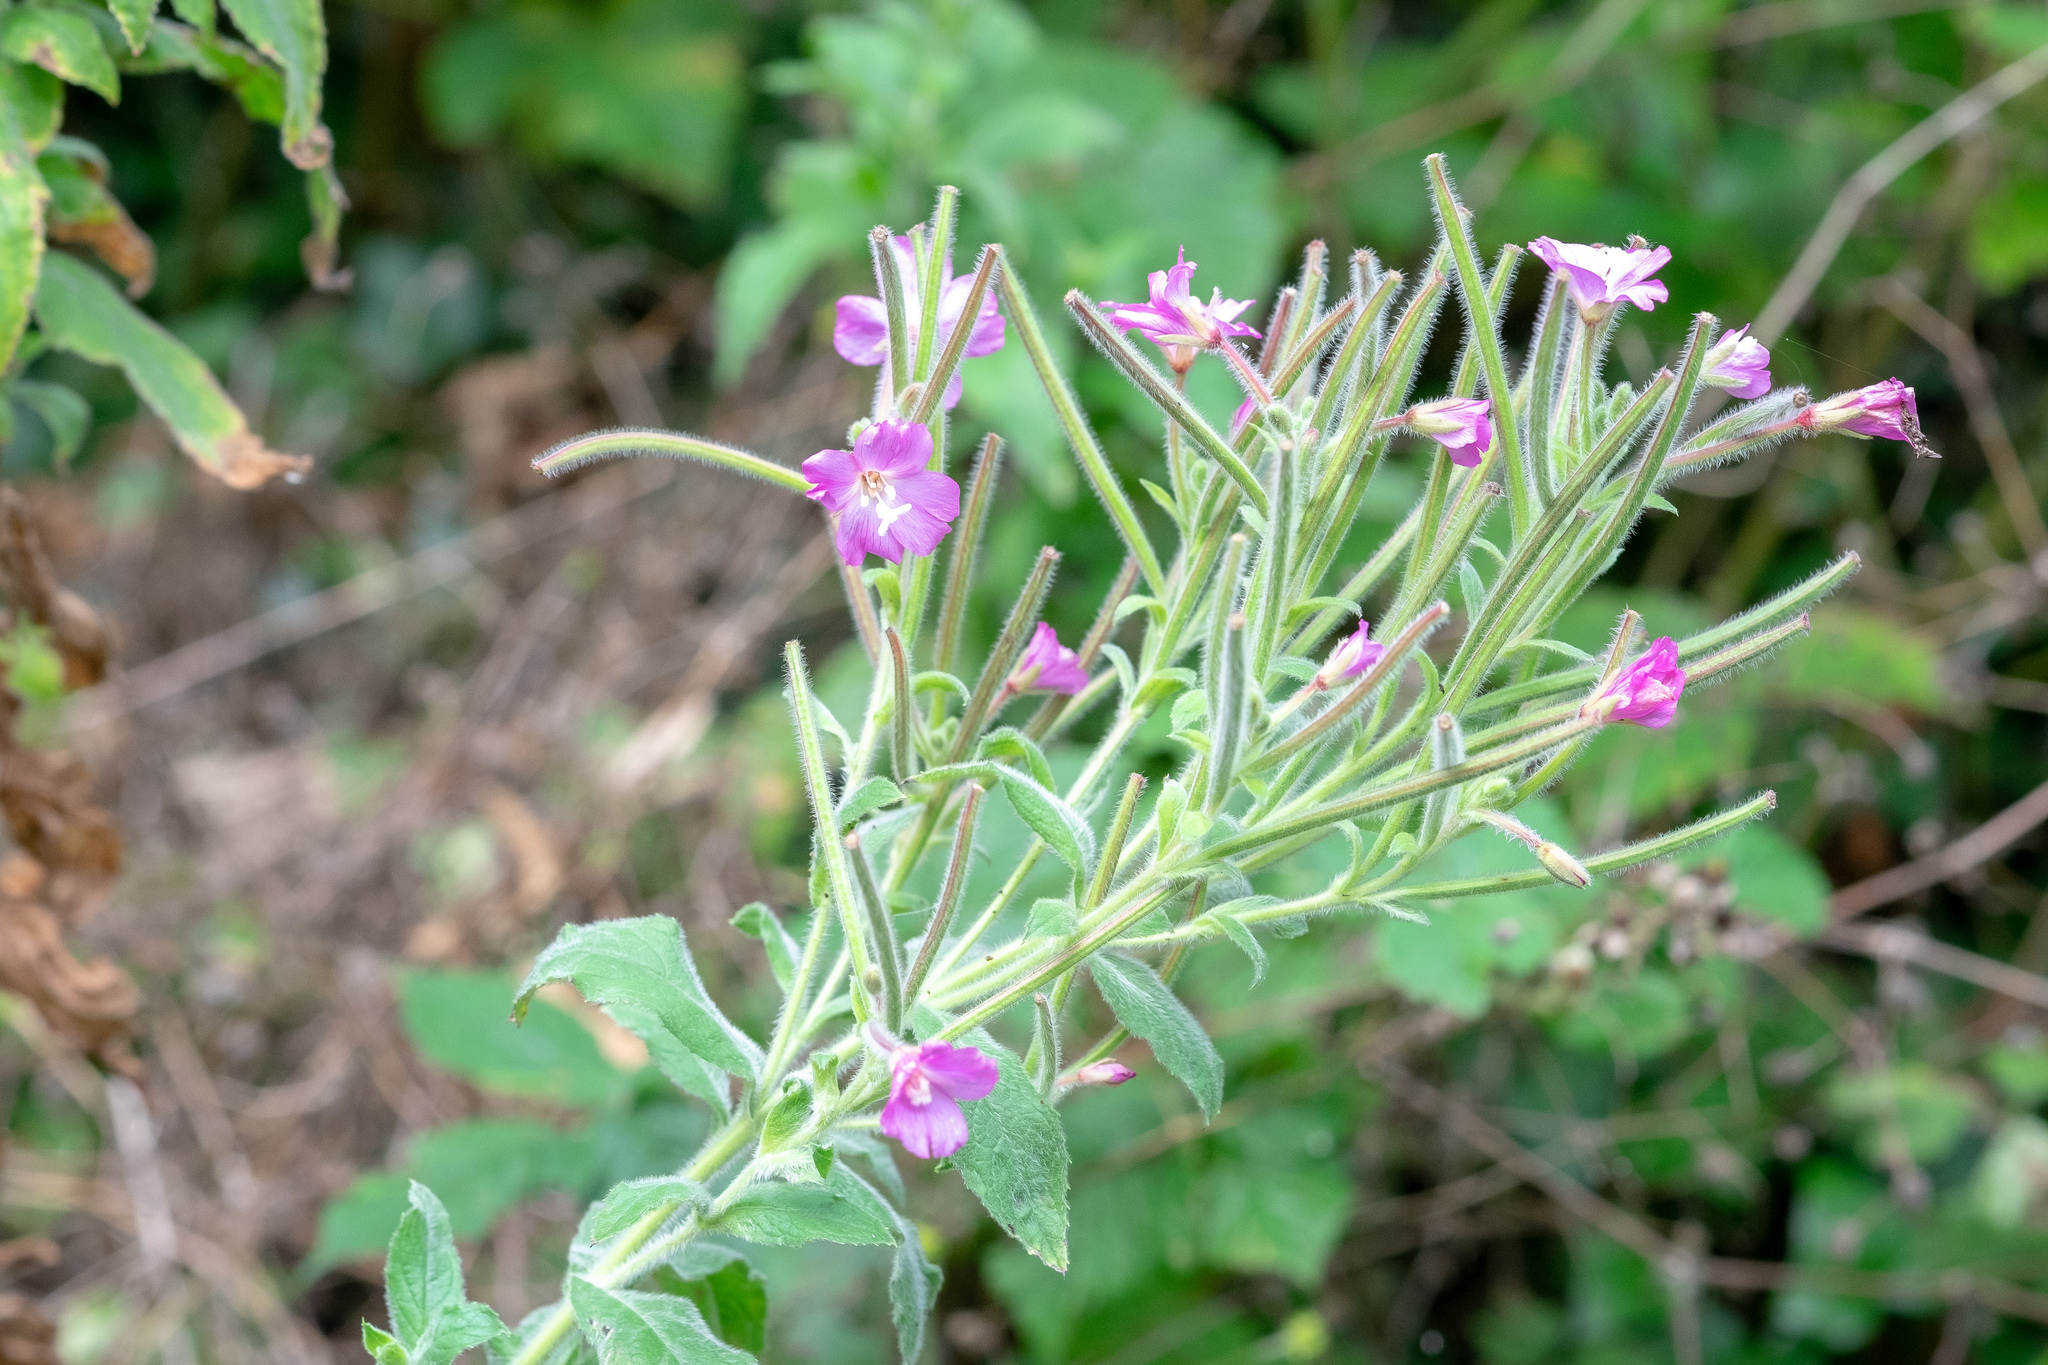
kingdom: Plantae
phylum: Tracheophyta
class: Magnoliopsida
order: Myrtales
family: Onagraceae
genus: Epilobium
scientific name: Epilobium hirsutum
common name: Great willowherb
